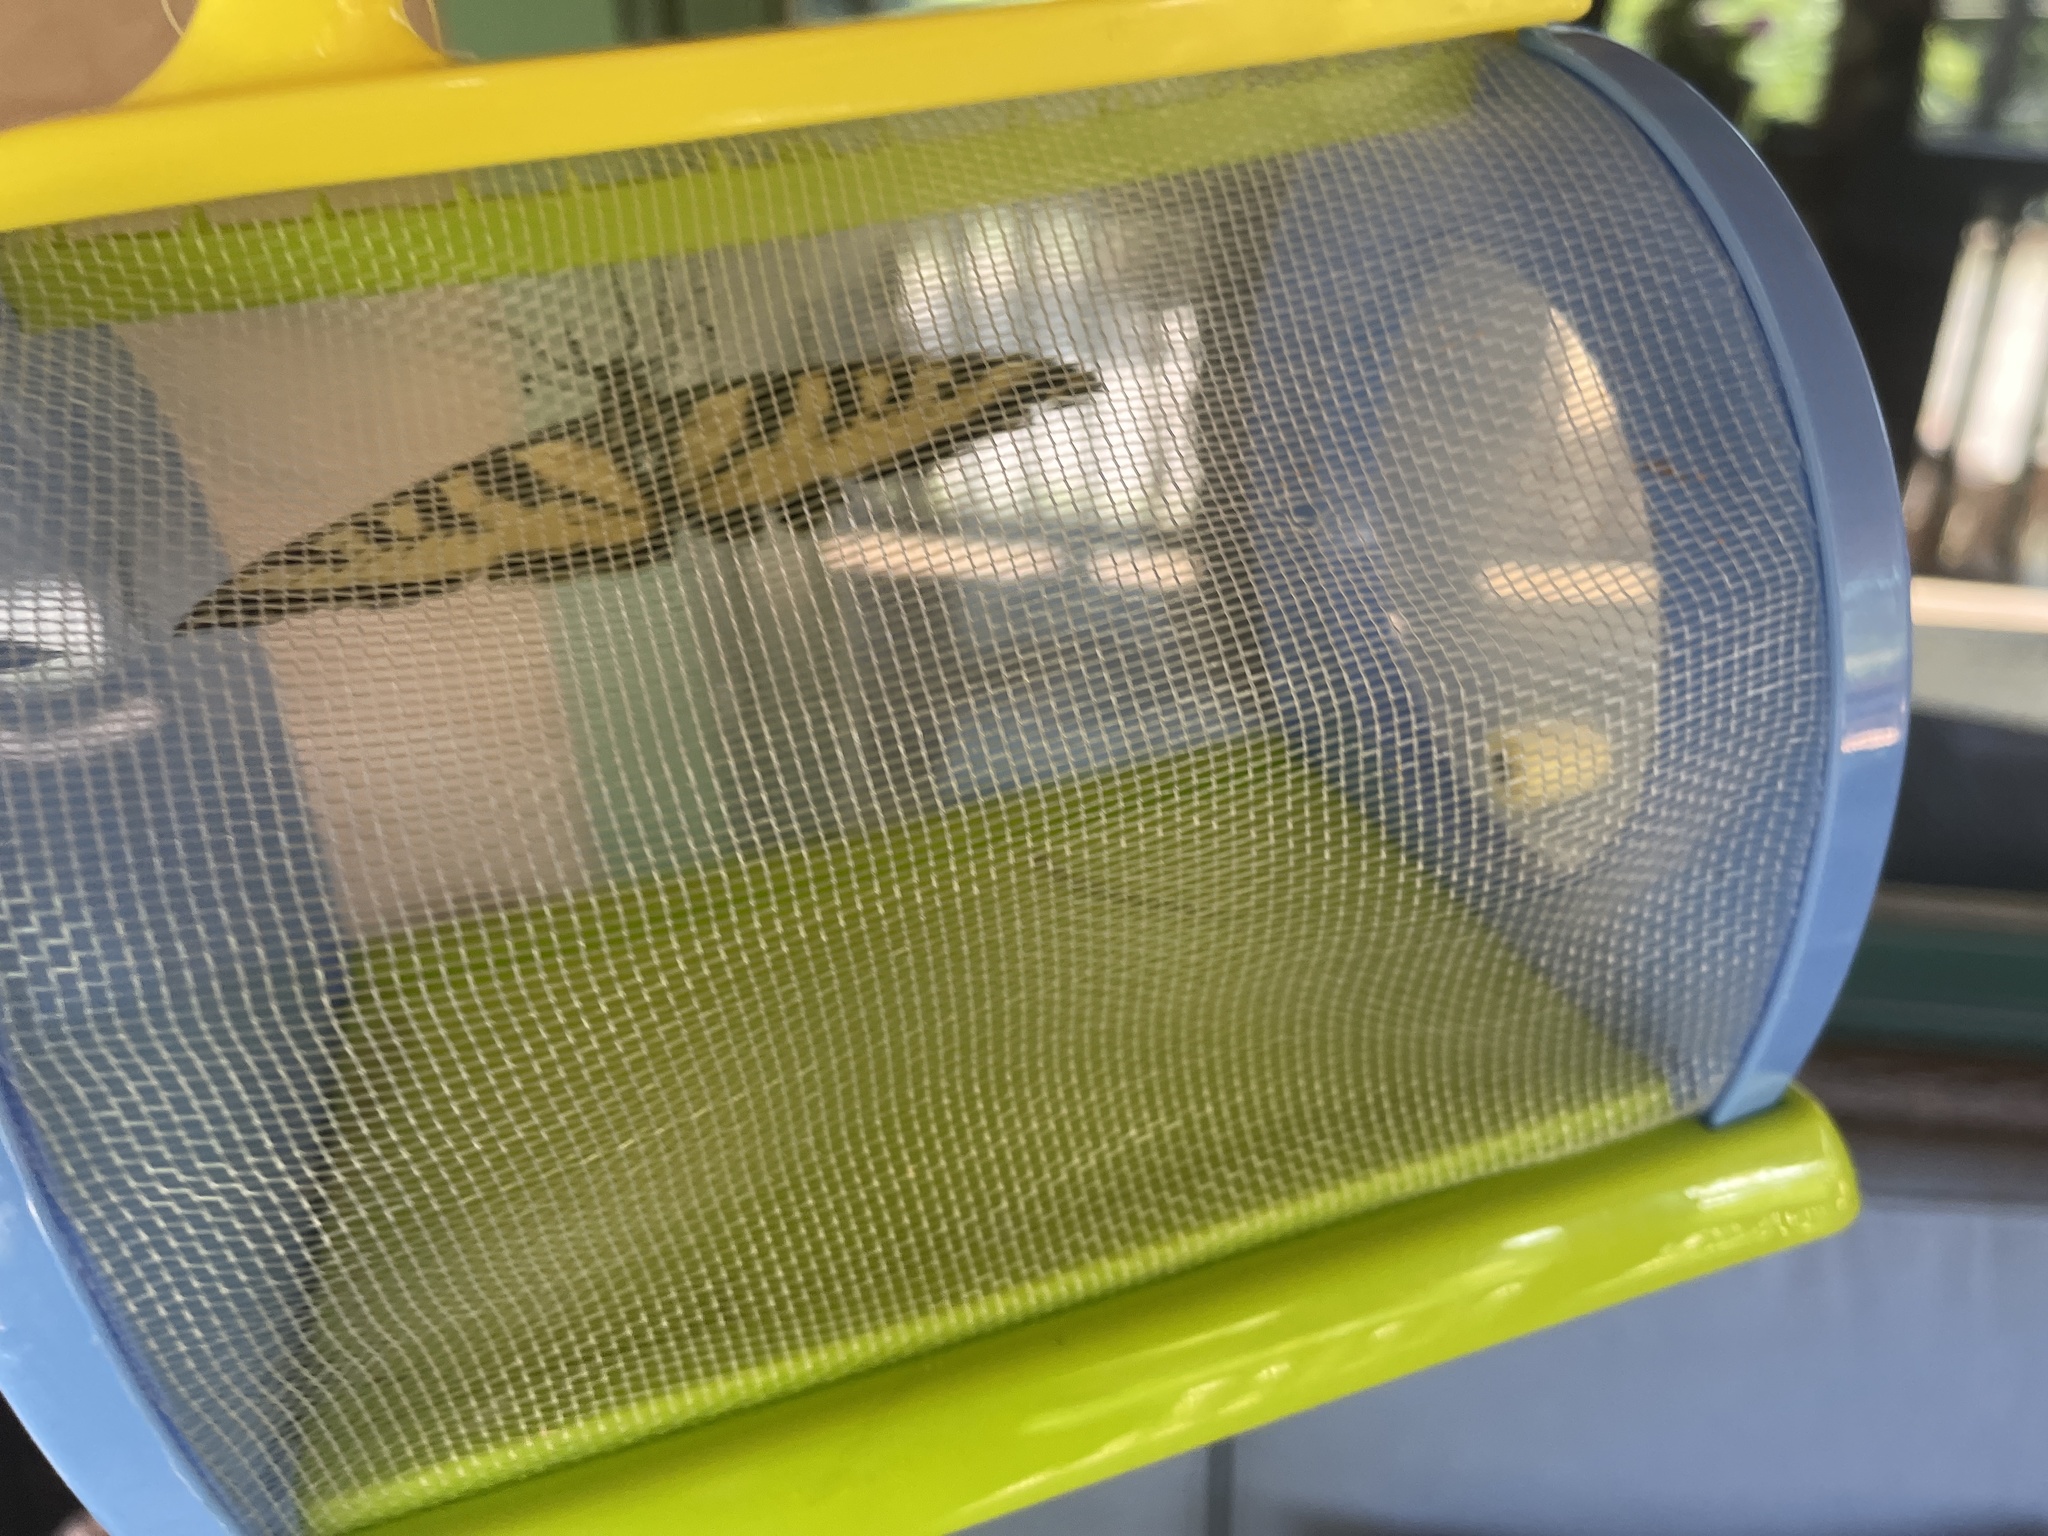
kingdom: Animalia
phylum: Arthropoda
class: Insecta
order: Lepidoptera
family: Papilionidae
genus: Papilio
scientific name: Papilio rutulus
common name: Western tiger swallowtail
